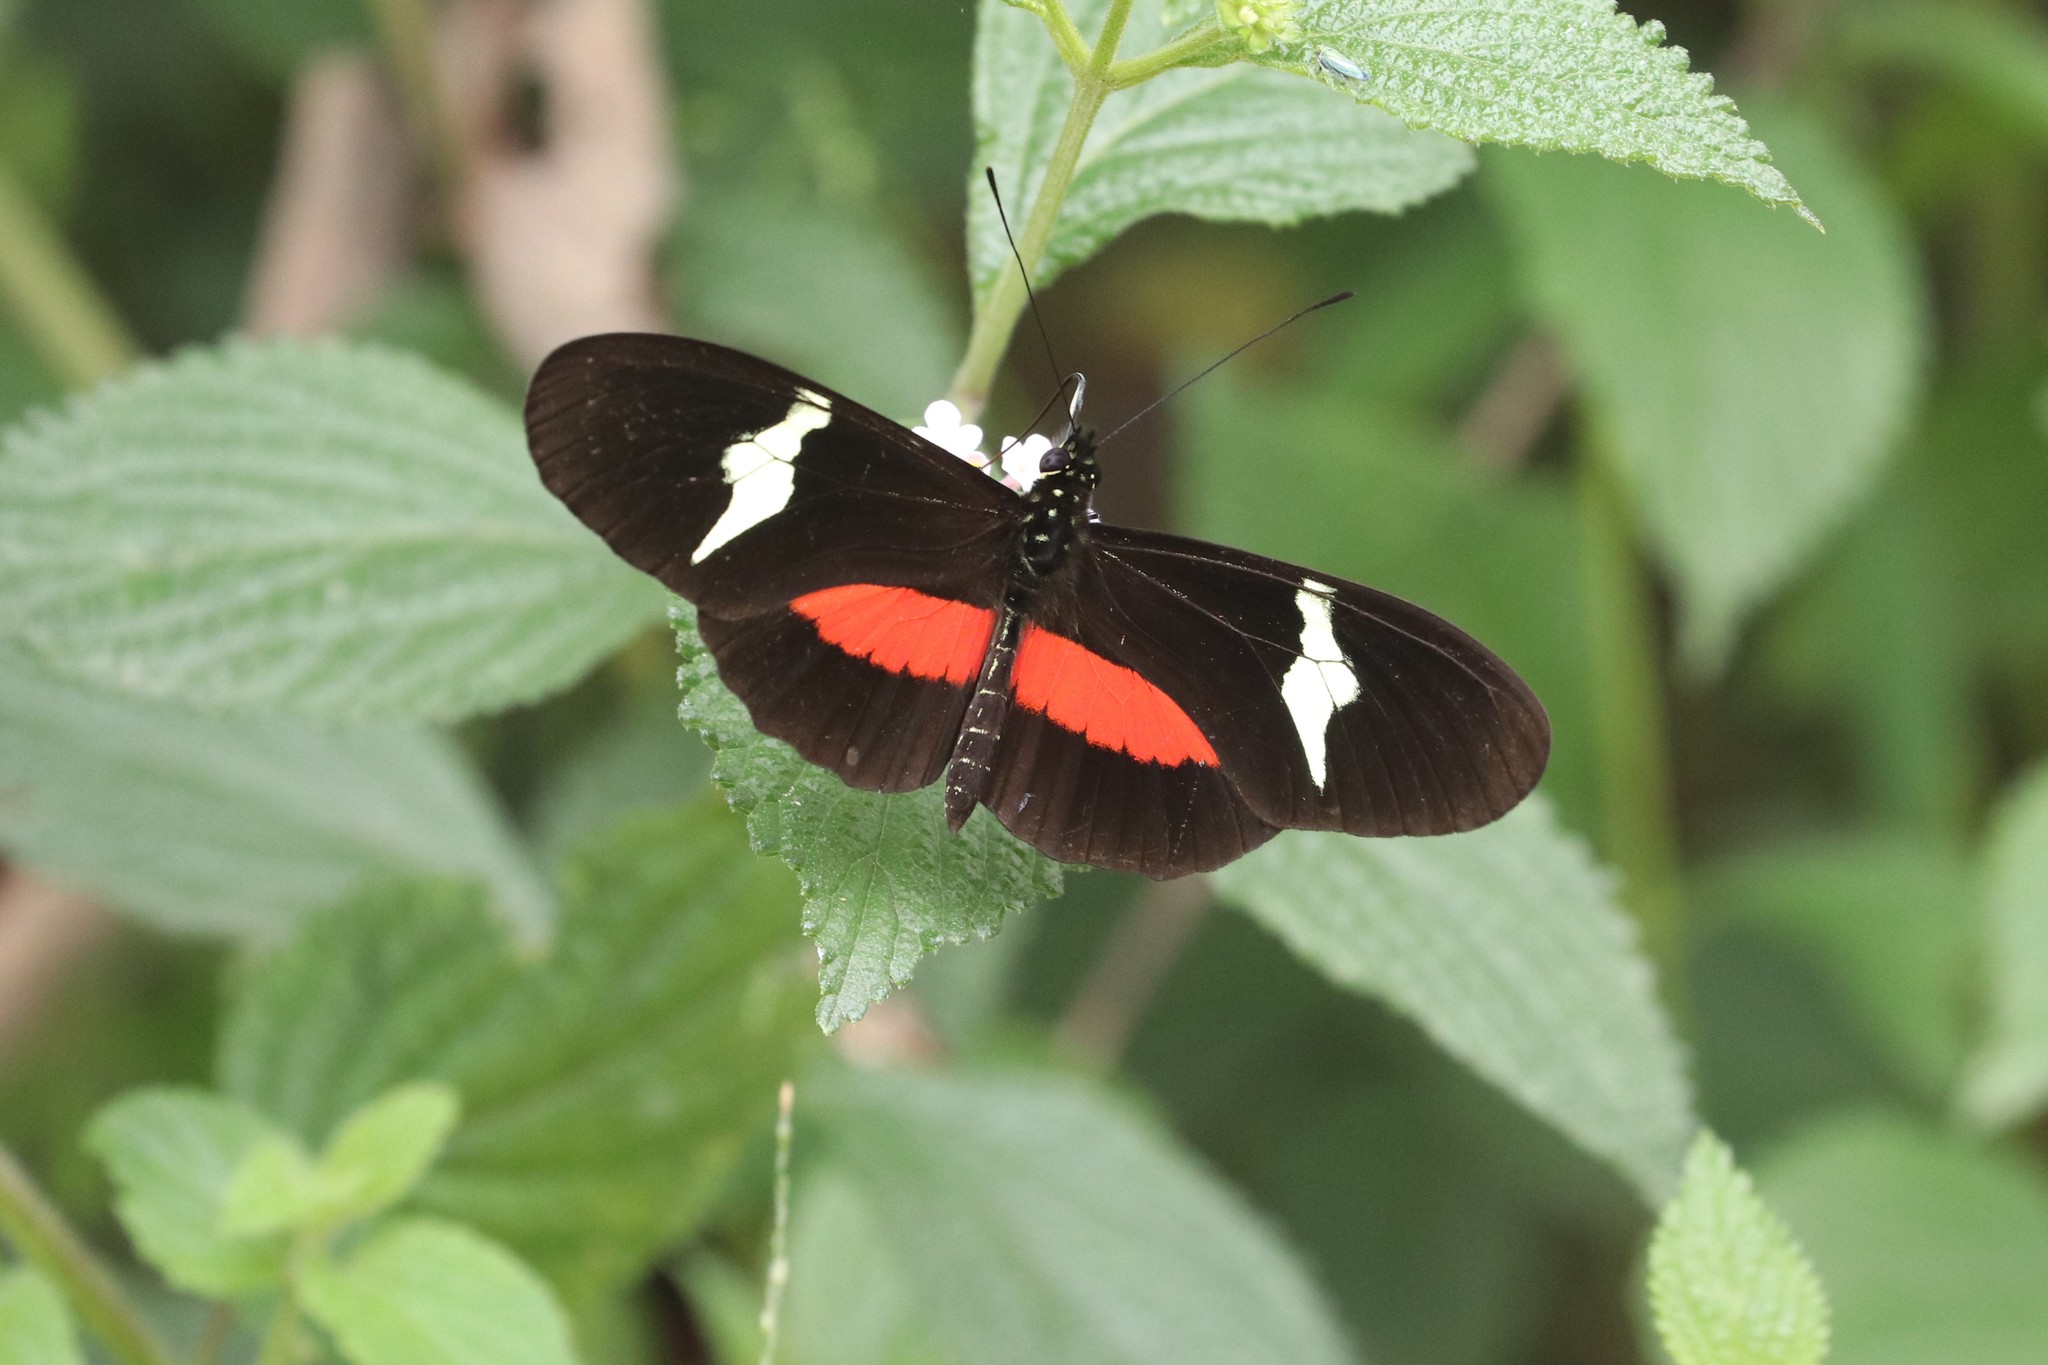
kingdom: Animalia
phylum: Arthropoda
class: Insecta
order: Lepidoptera
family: Nymphalidae
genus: Heliconius
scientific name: Heliconius clysonymus
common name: Clysonymus longwing
